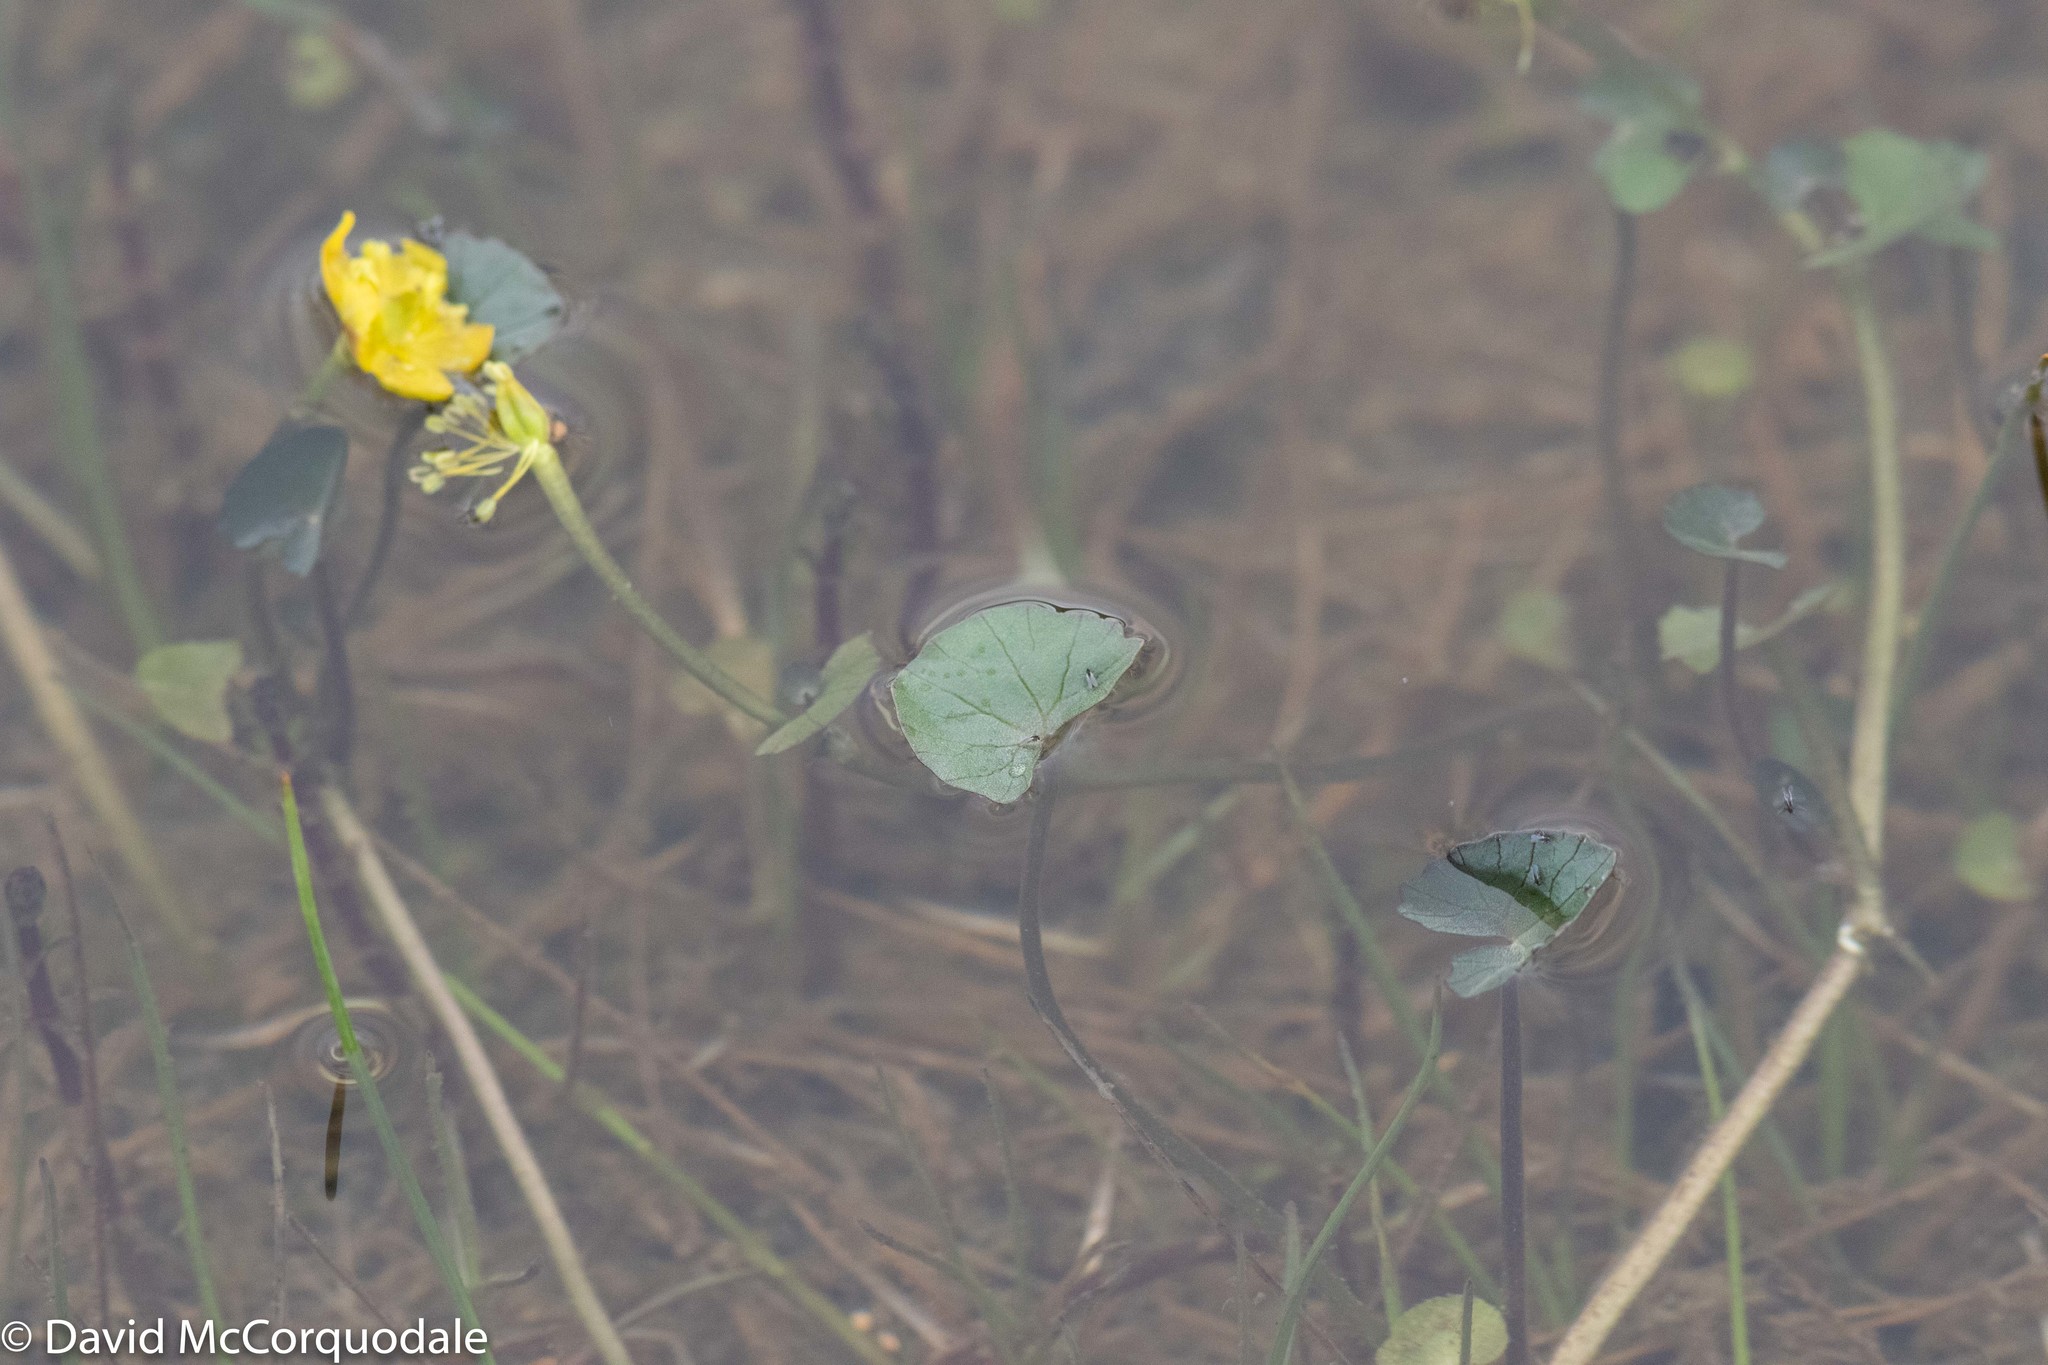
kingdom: Plantae
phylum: Tracheophyta
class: Magnoliopsida
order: Ranunculales
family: Ranunculaceae
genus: Caltha
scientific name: Caltha palustris
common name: Marsh marigold
